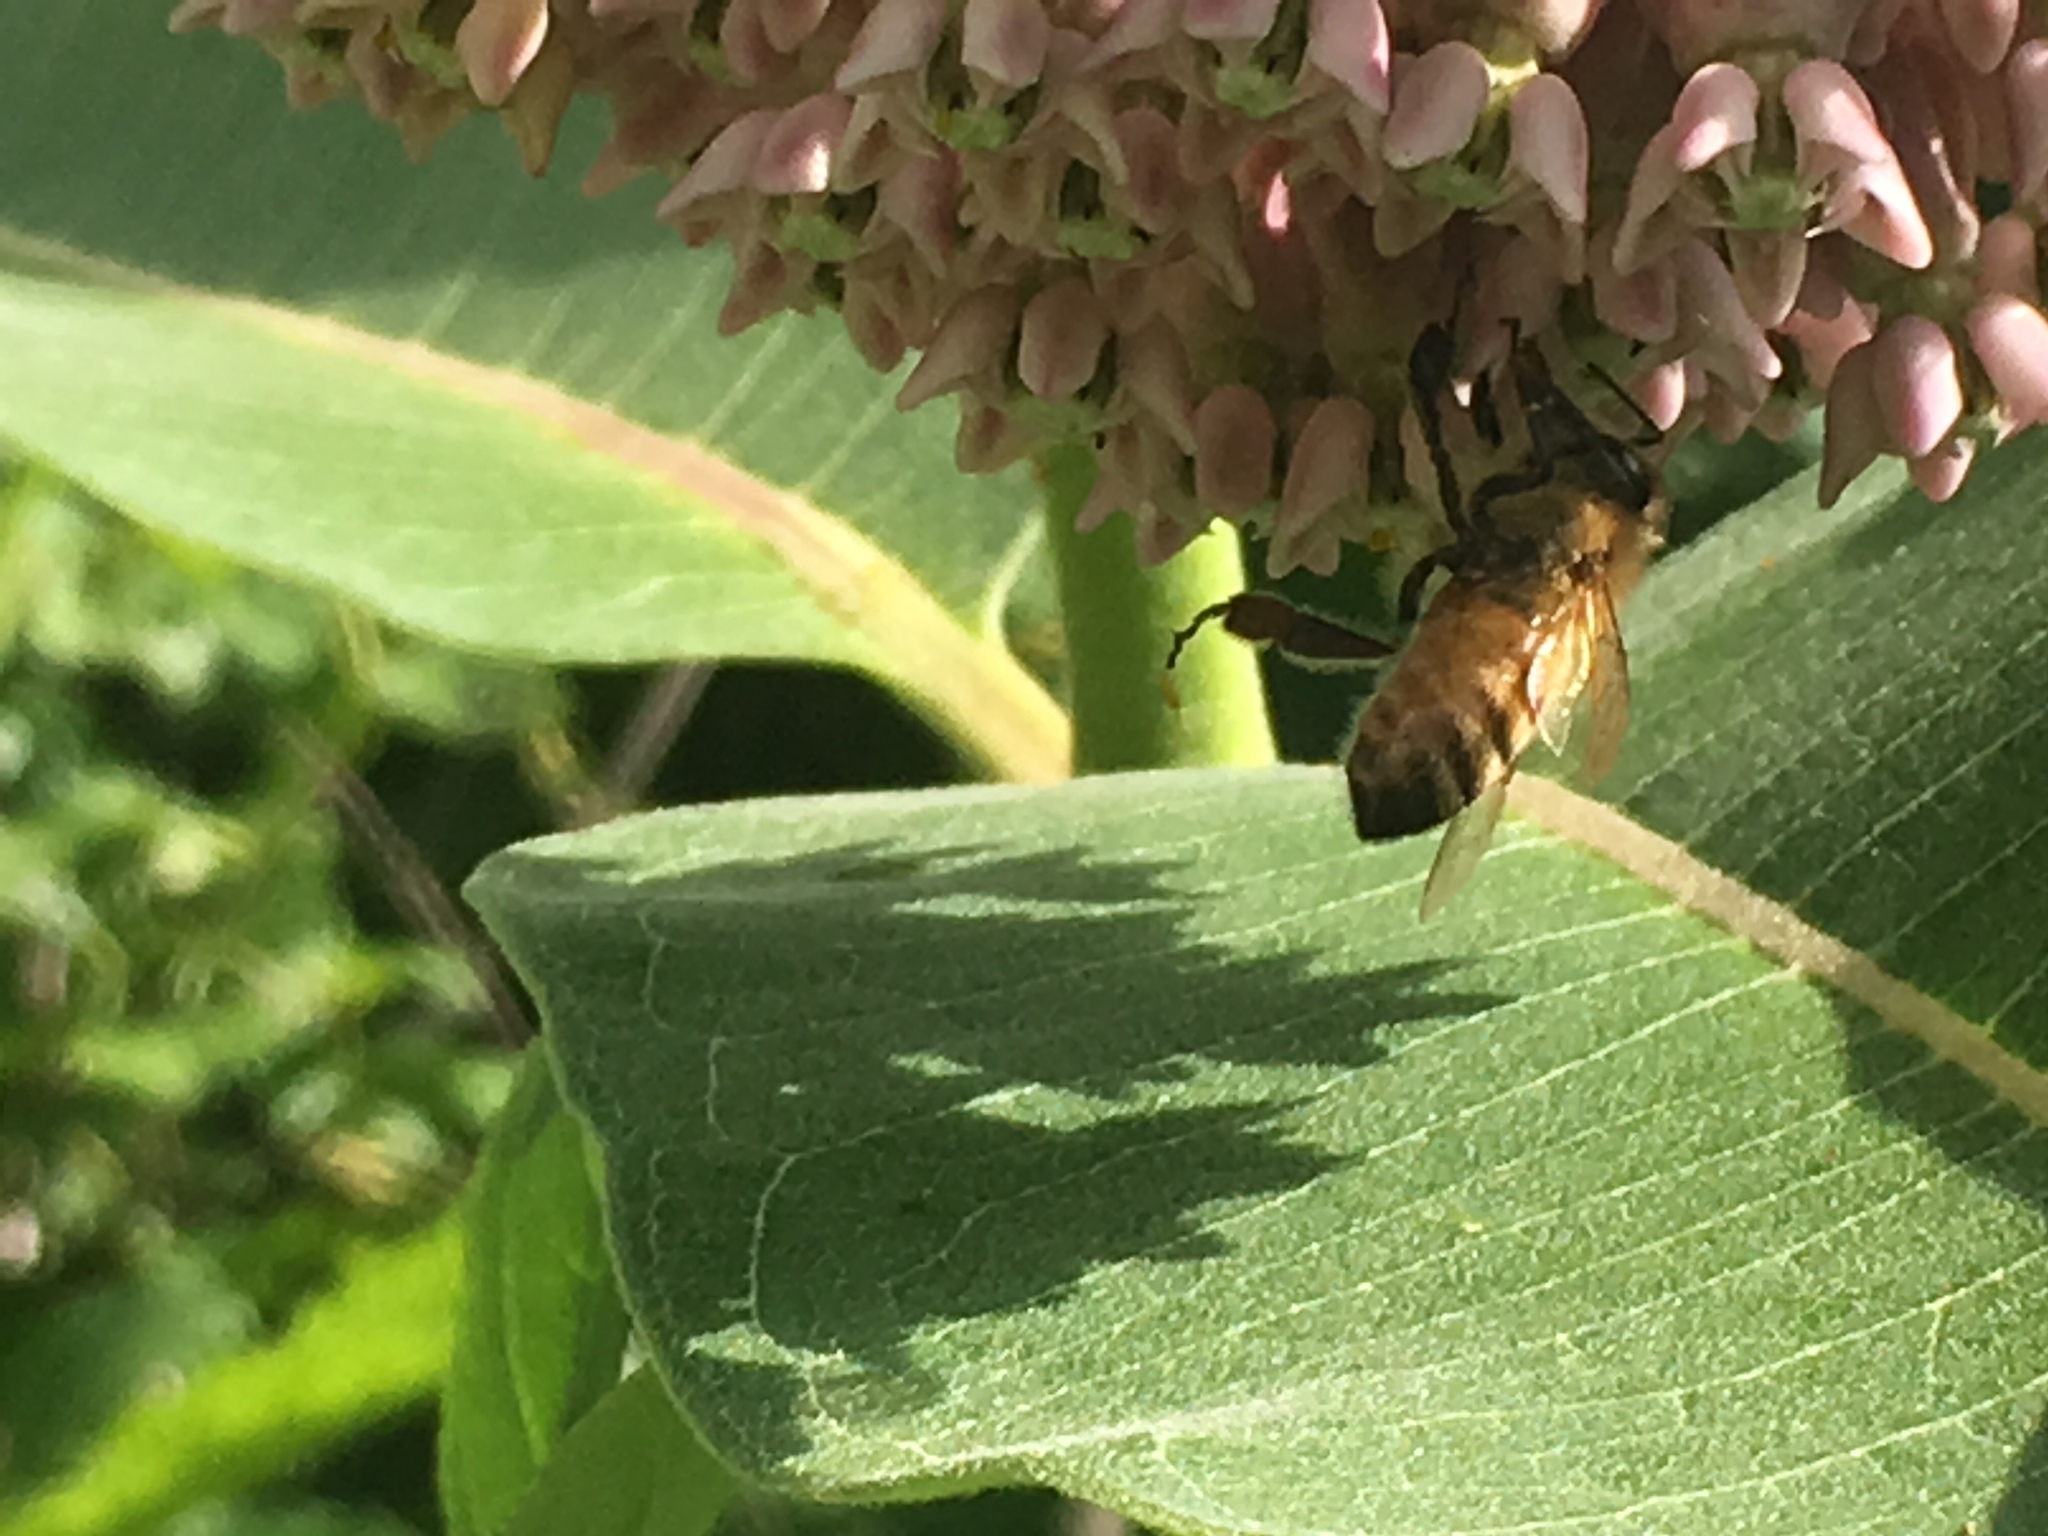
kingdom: Animalia
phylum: Arthropoda
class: Insecta
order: Hymenoptera
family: Apidae
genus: Apis
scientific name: Apis mellifera
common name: Honey bee
